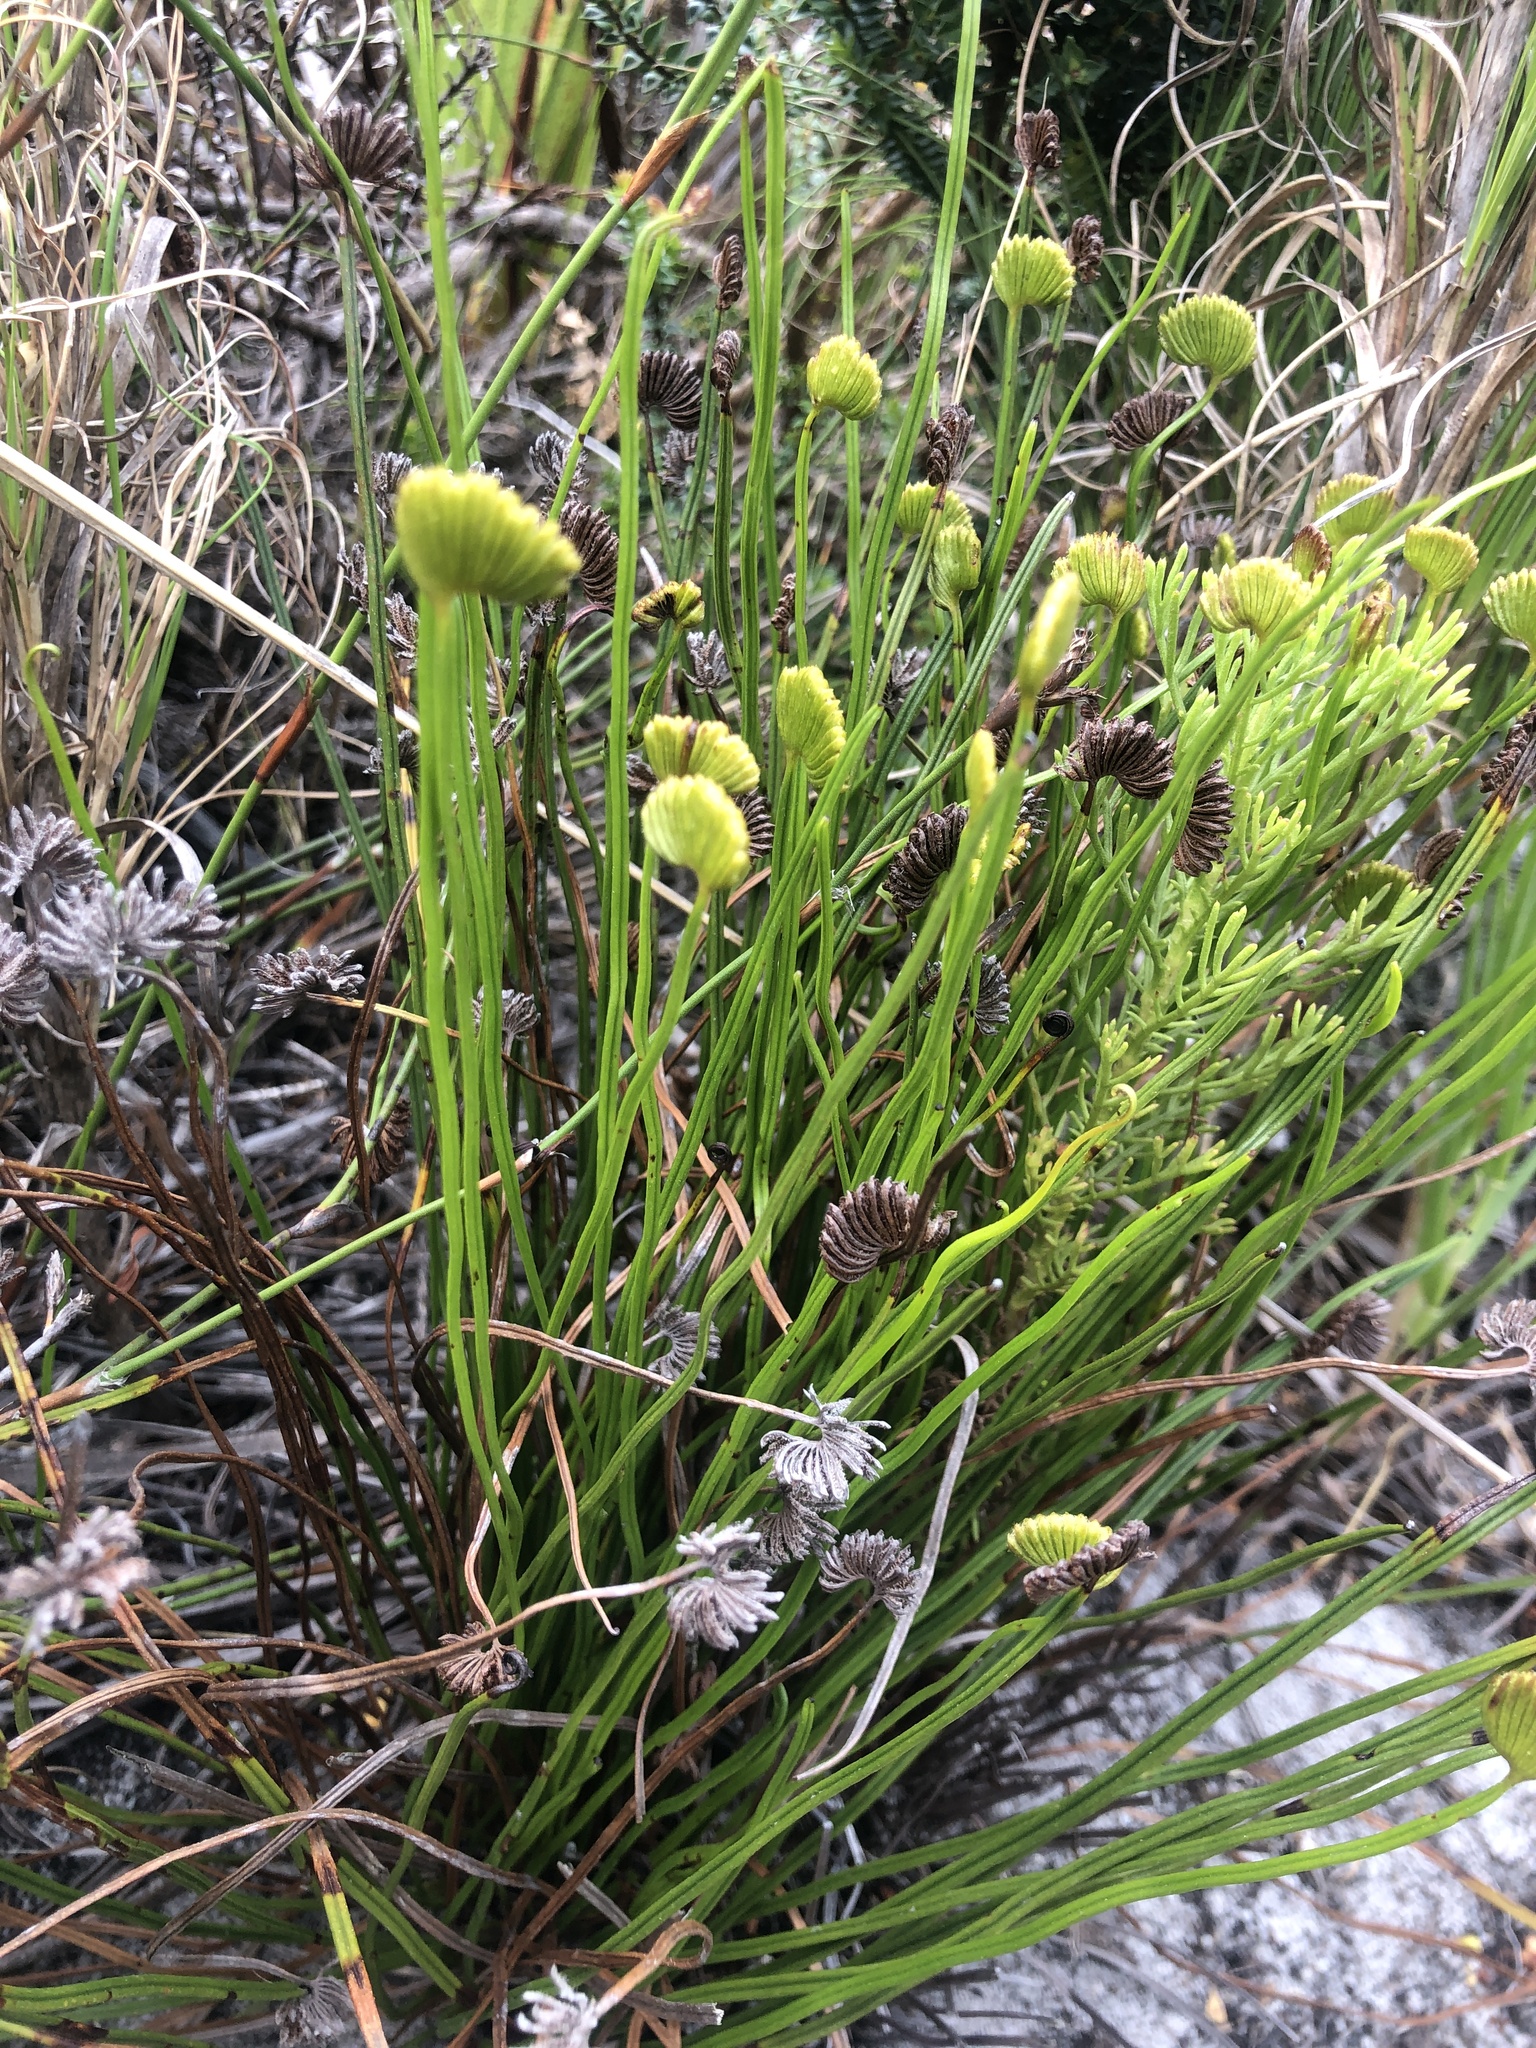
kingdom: Plantae
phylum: Tracheophyta
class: Polypodiopsida
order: Schizaeales
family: Schizaeaceae
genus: Schizaea
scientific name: Schizaea pectinata
